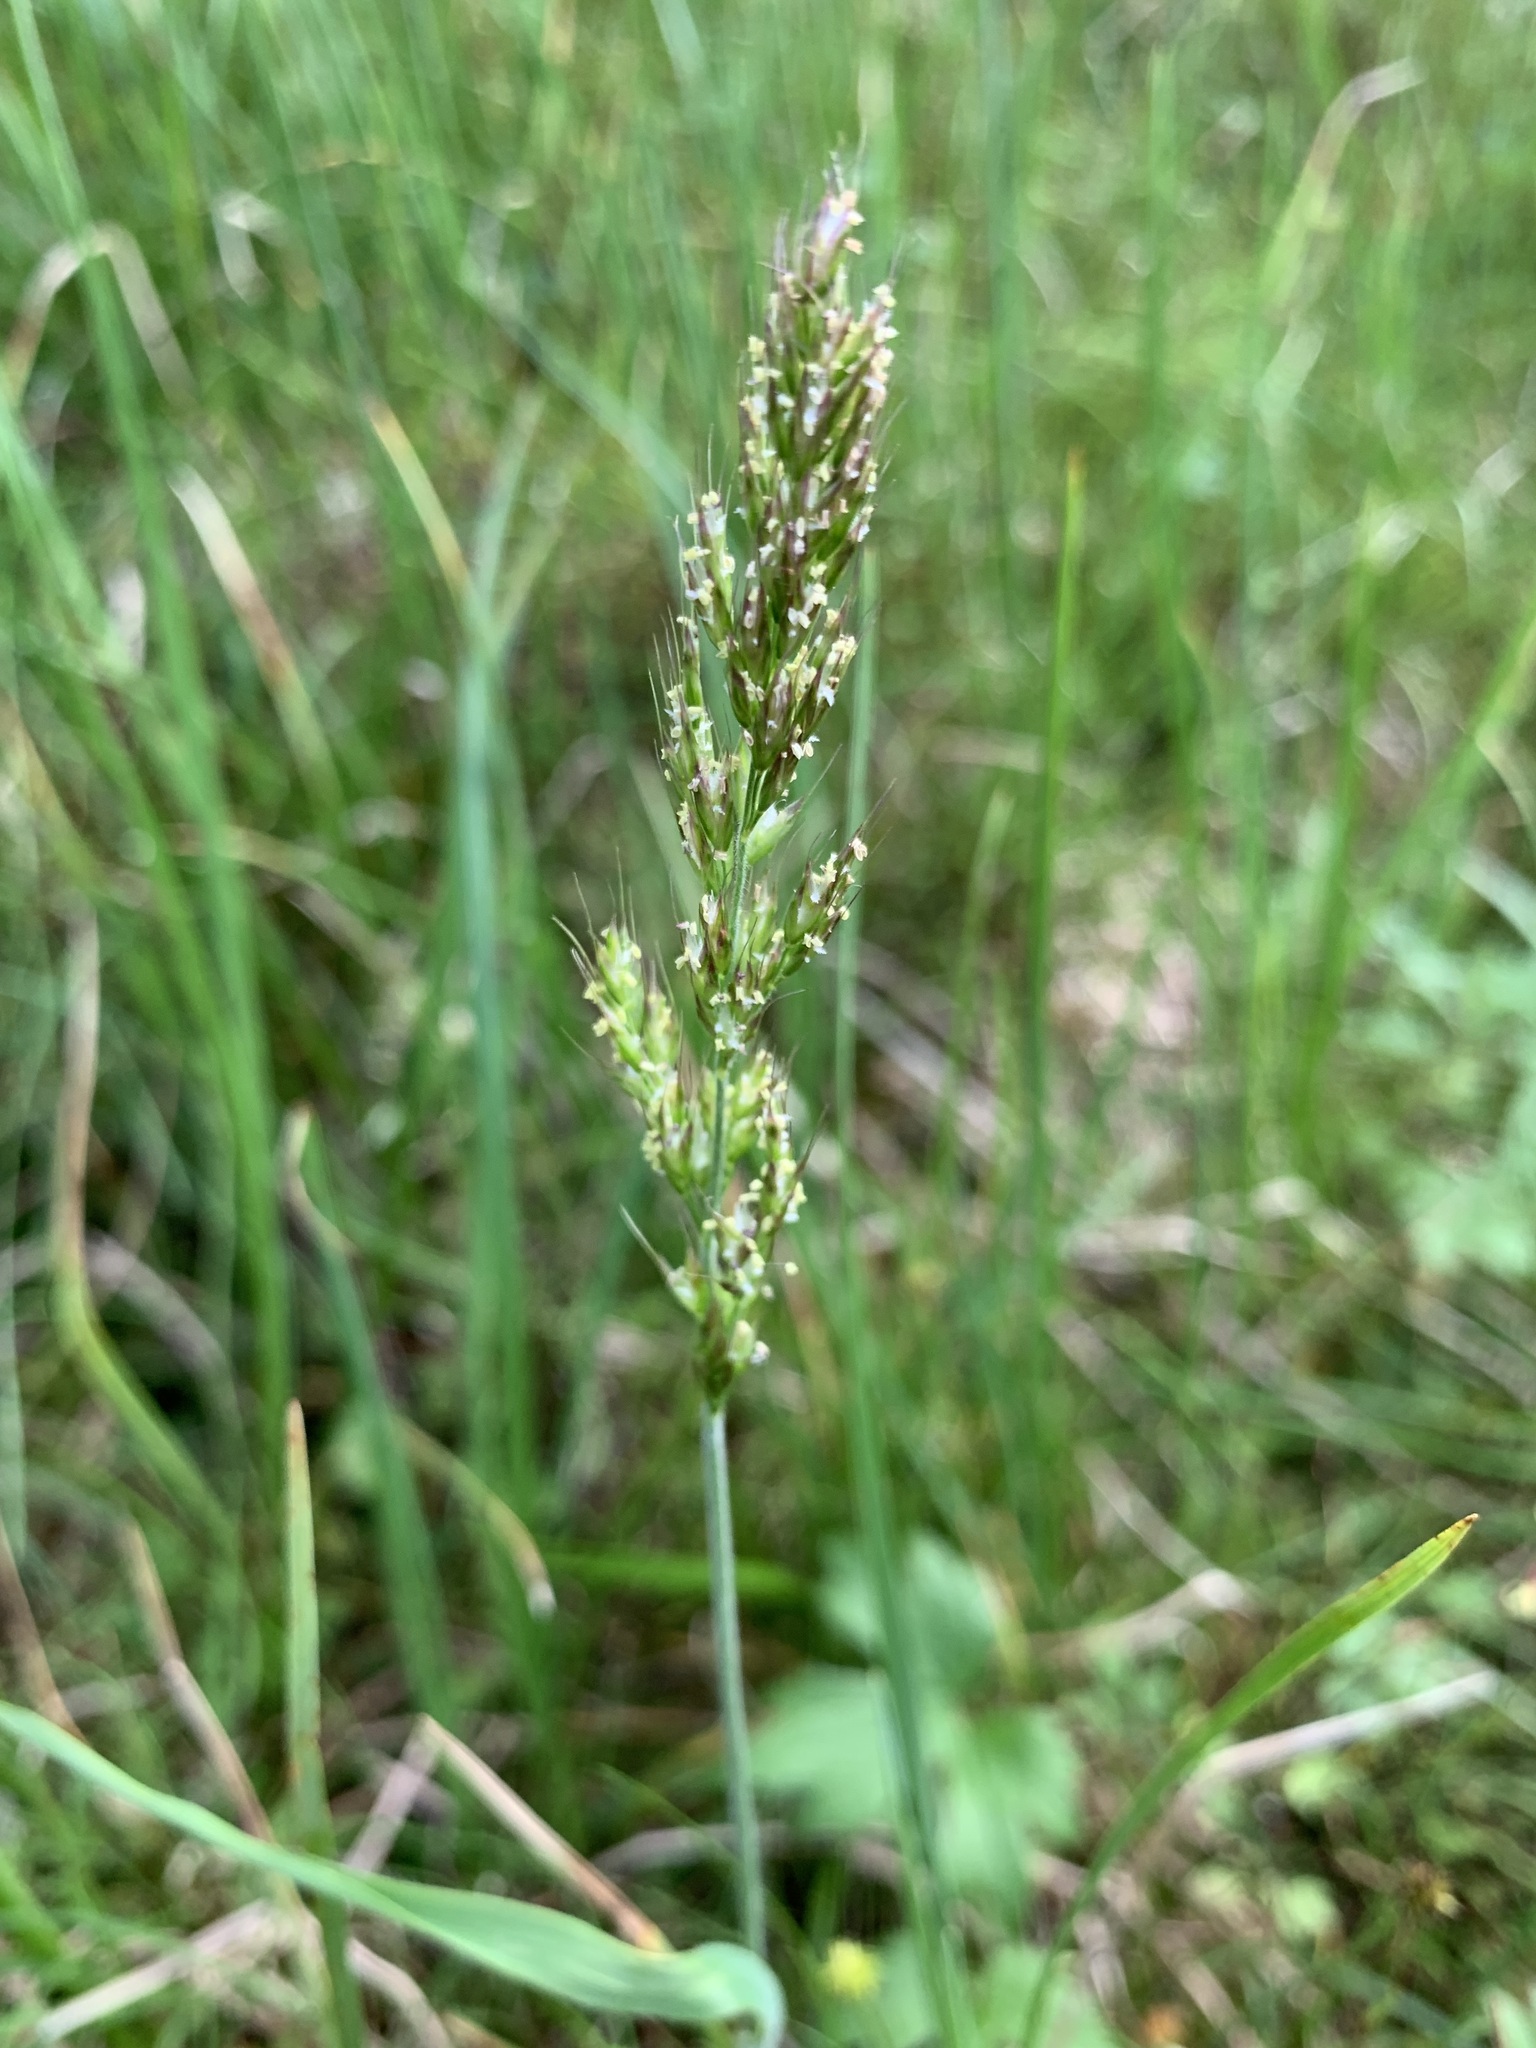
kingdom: Plantae
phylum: Tracheophyta
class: Liliopsida
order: Poales
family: Poaceae
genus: Koeleria
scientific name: Koeleria spicata
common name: Mountain trisetum
